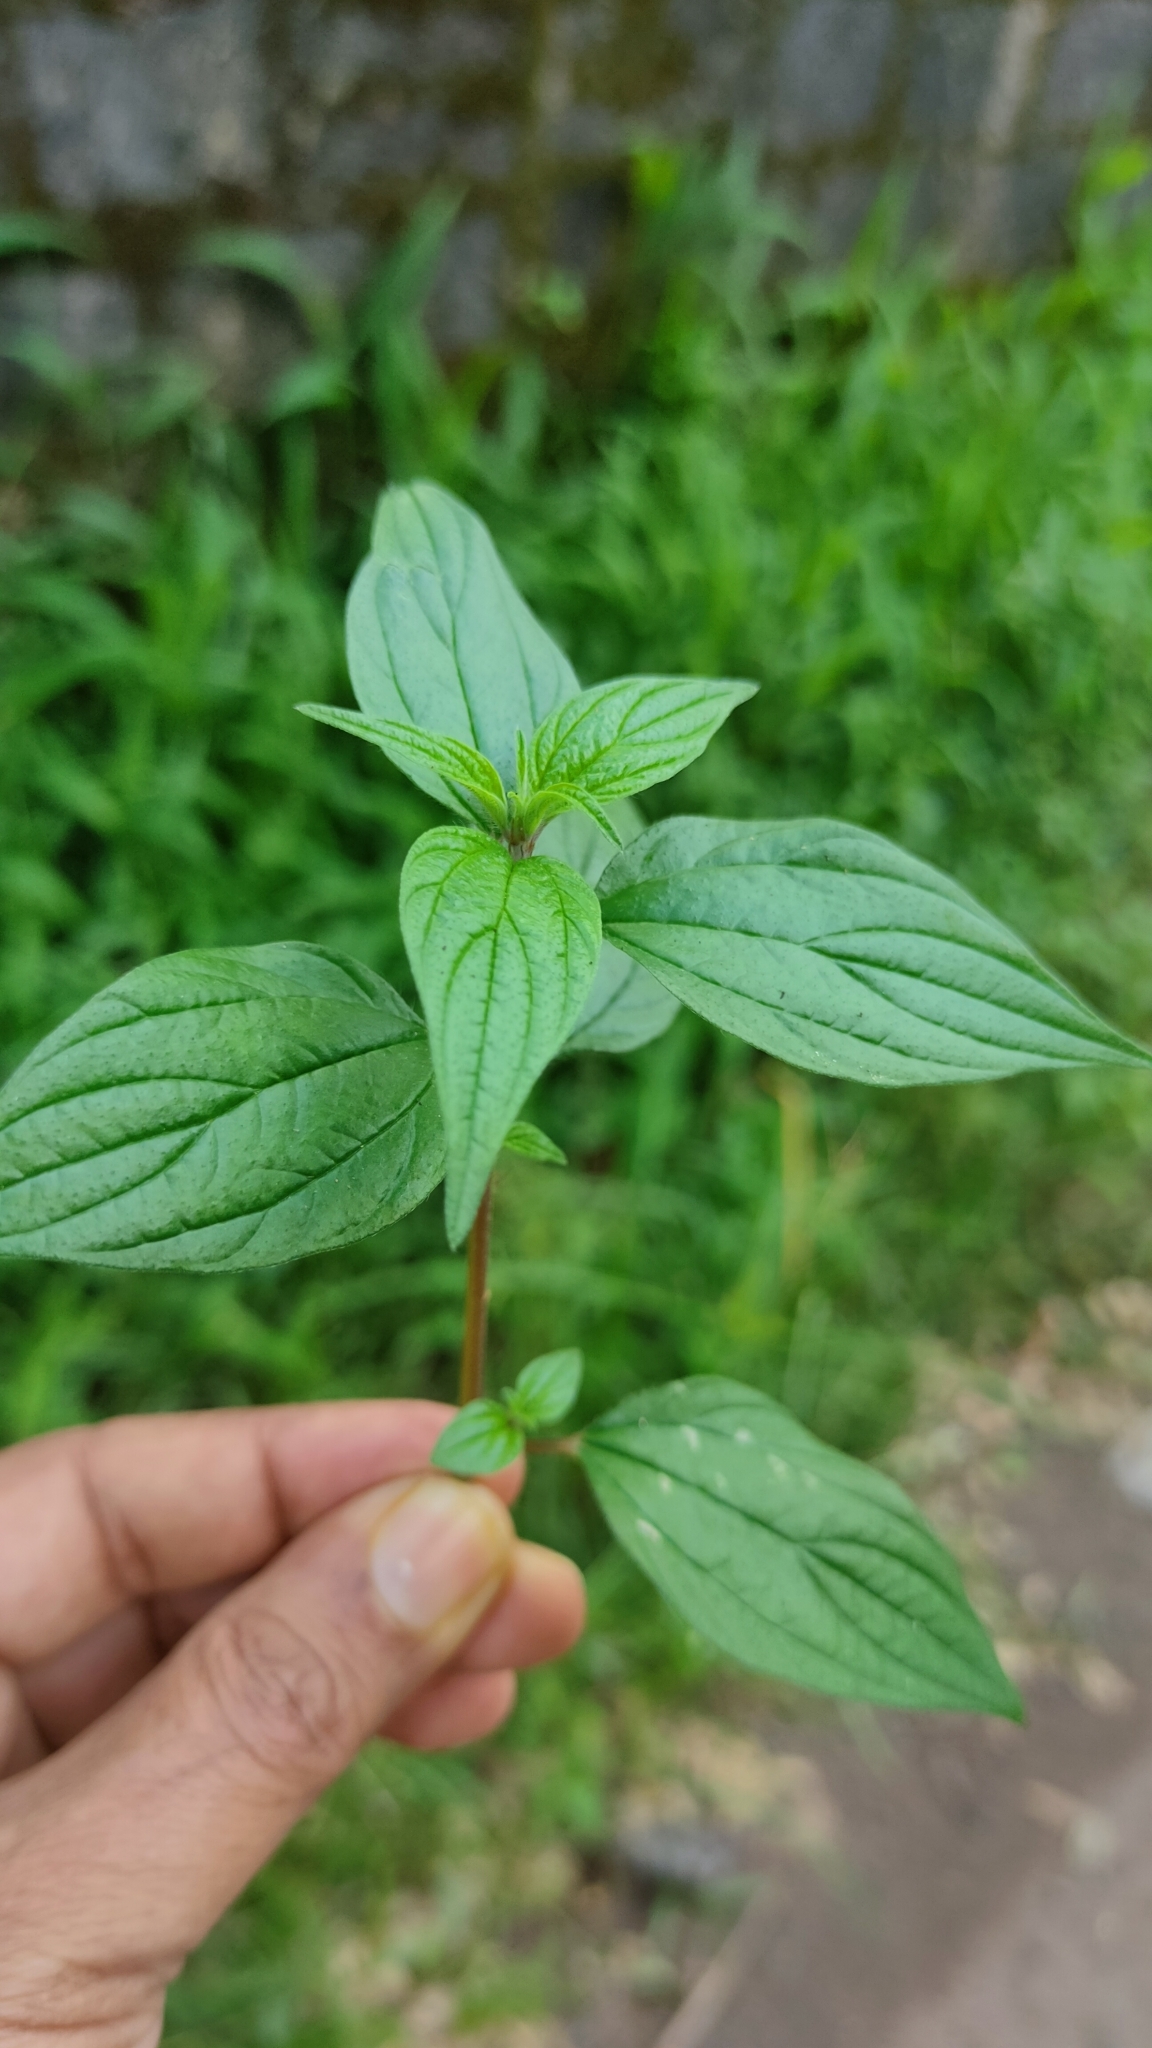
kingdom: Plantae
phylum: Tracheophyta
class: Magnoliopsida
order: Rosales
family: Urticaceae
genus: Pouzolzia
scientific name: Pouzolzia zeylanica
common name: Graceful pouzolzsbush
